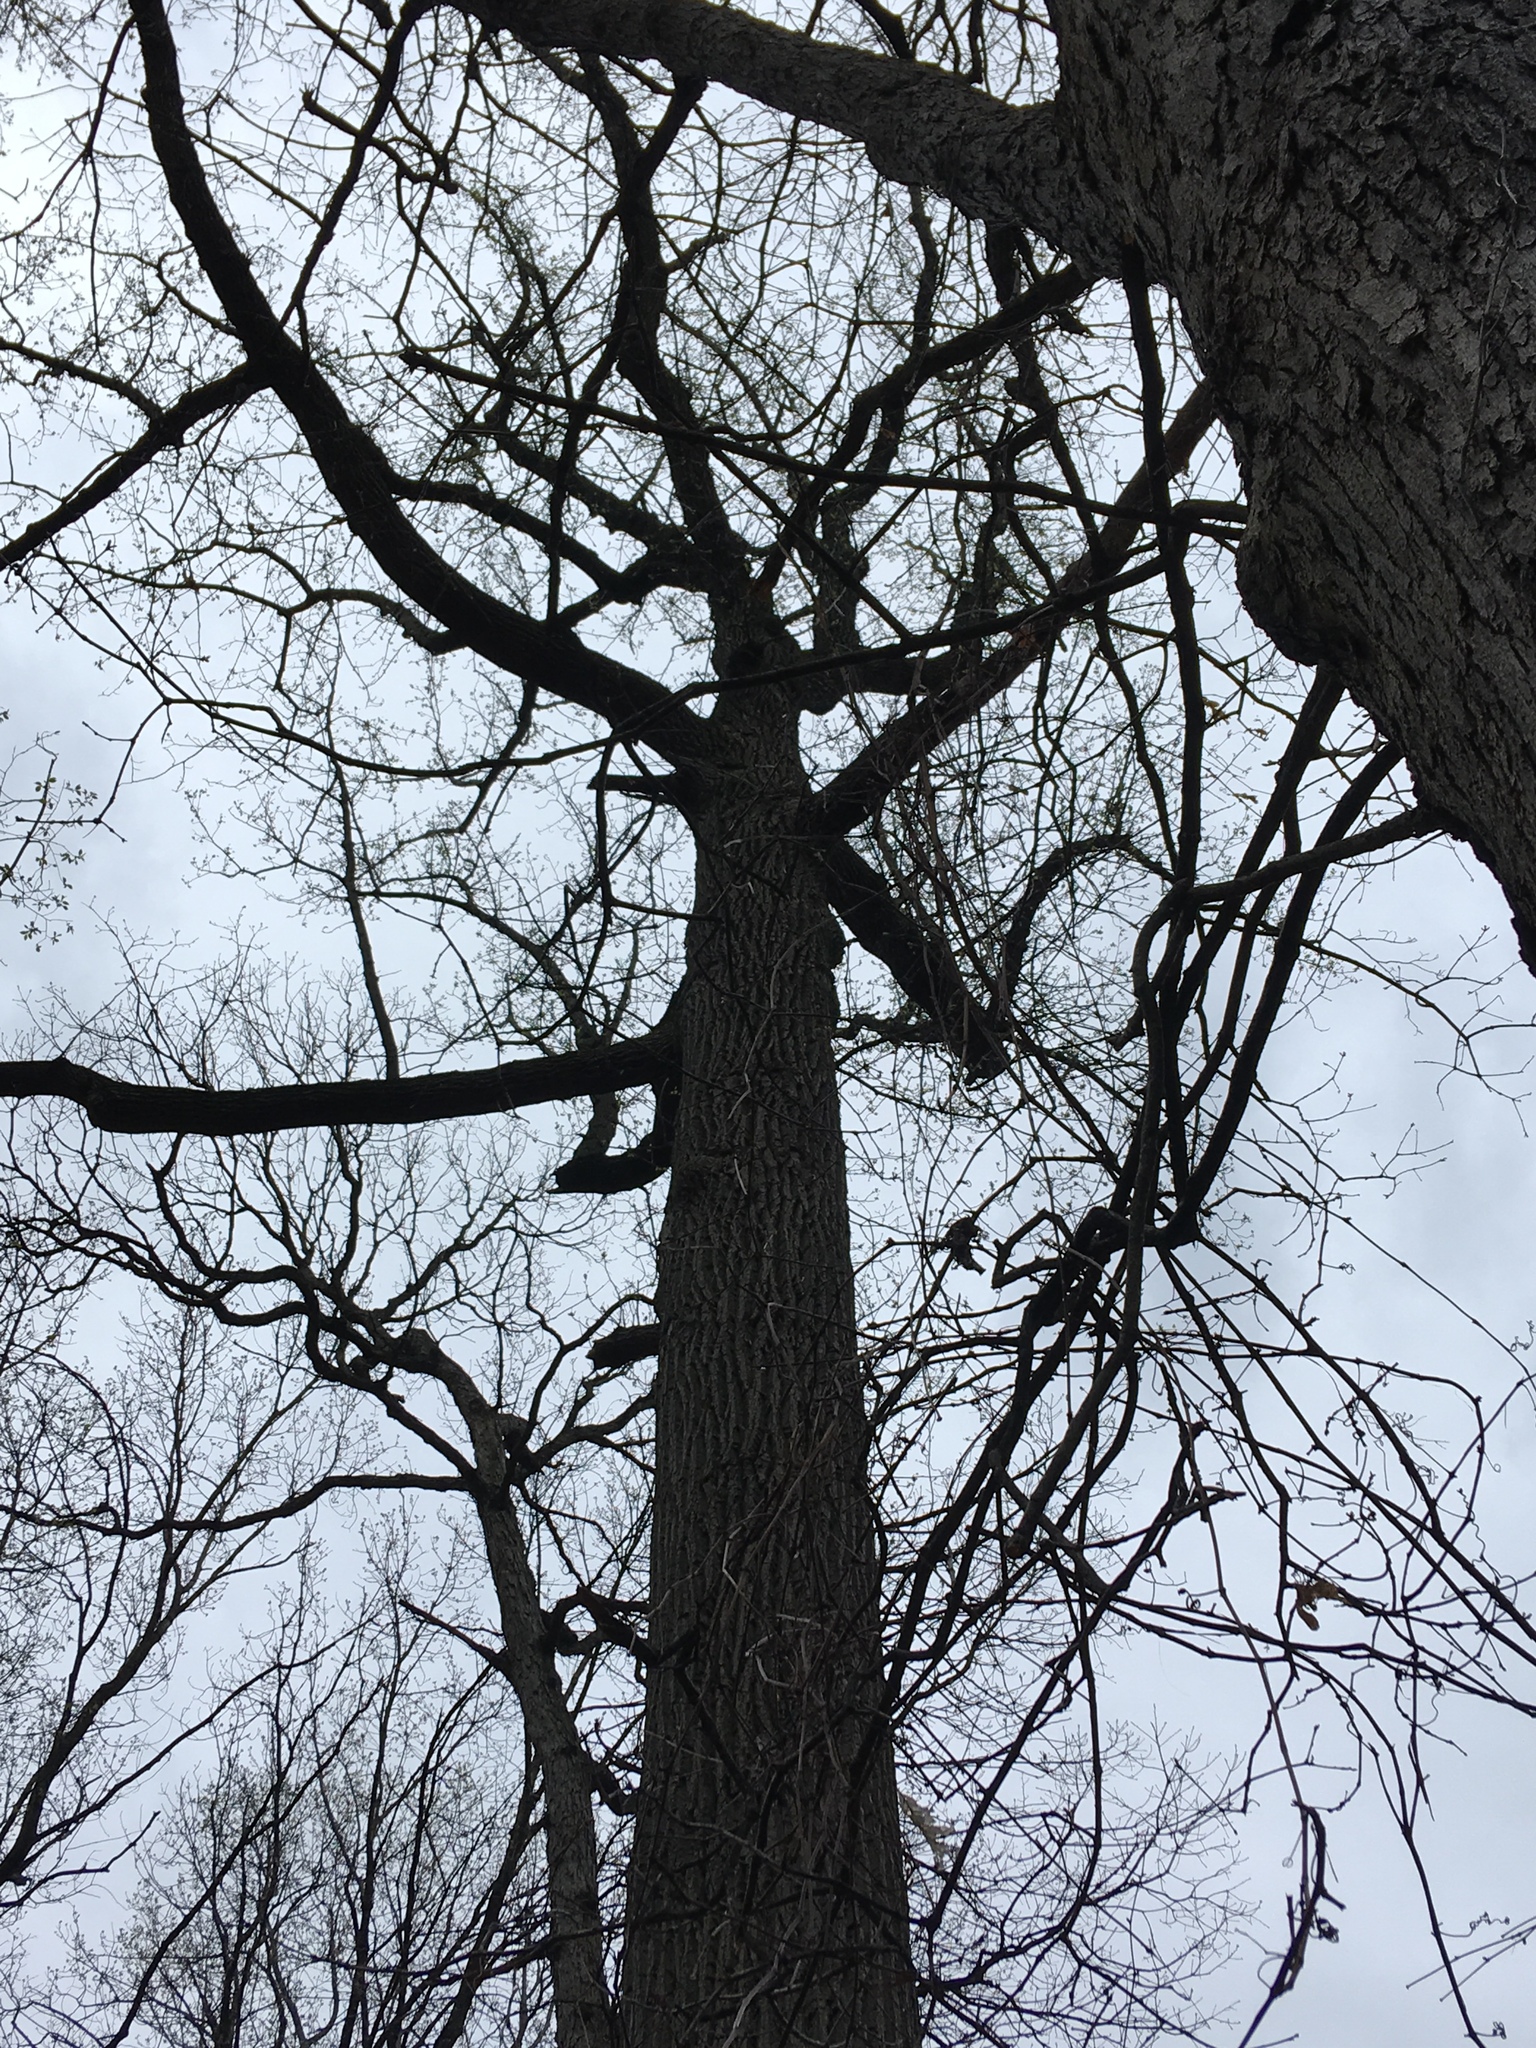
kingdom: Plantae
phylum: Tracheophyta
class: Magnoliopsida
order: Magnoliales
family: Magnoliaceae
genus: Liriodendron
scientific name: Liriodendron tulipifera
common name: Tulip tree
